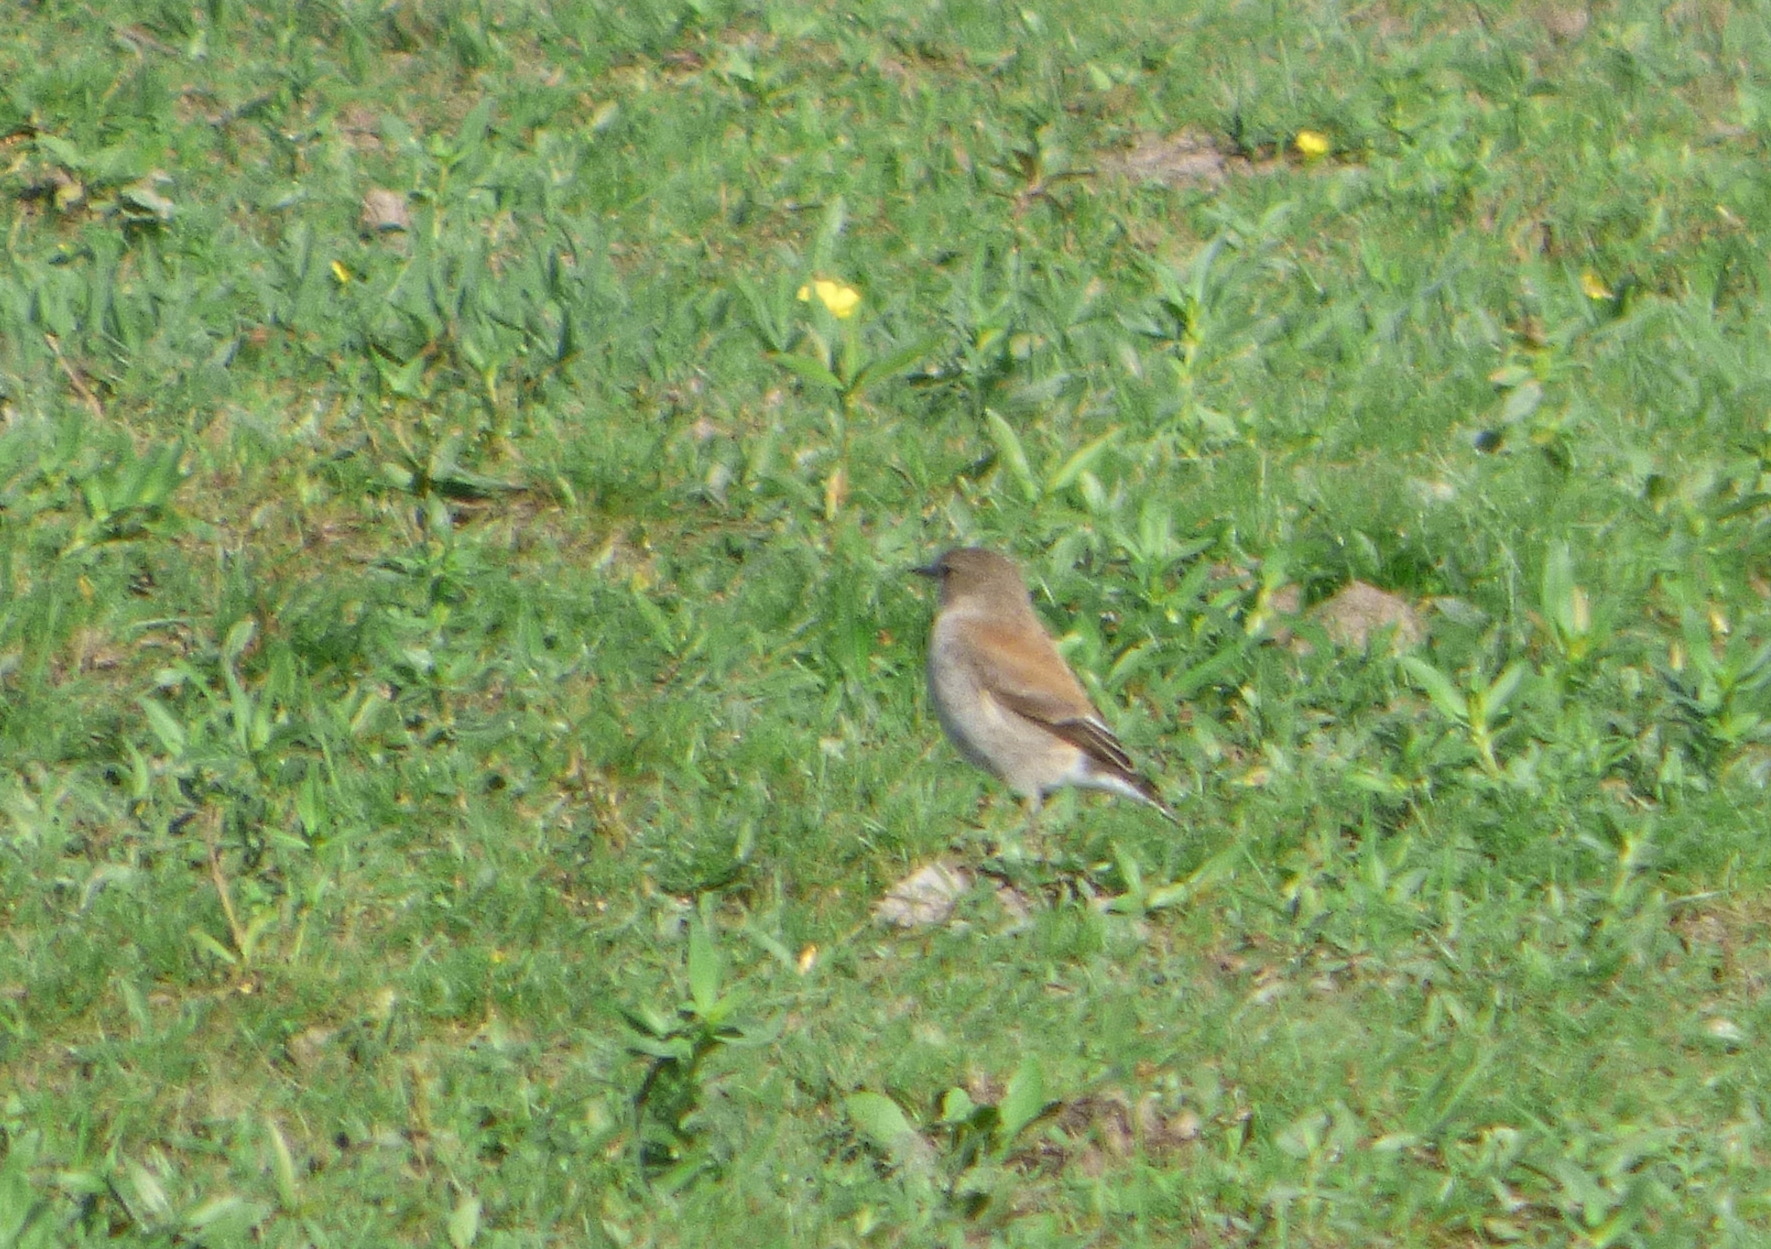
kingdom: Animalia
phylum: Chordata
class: Aves
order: Passeriformes
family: Tyrannidae
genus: Lessonia
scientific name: Lessonia rufa
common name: Austral negrito
